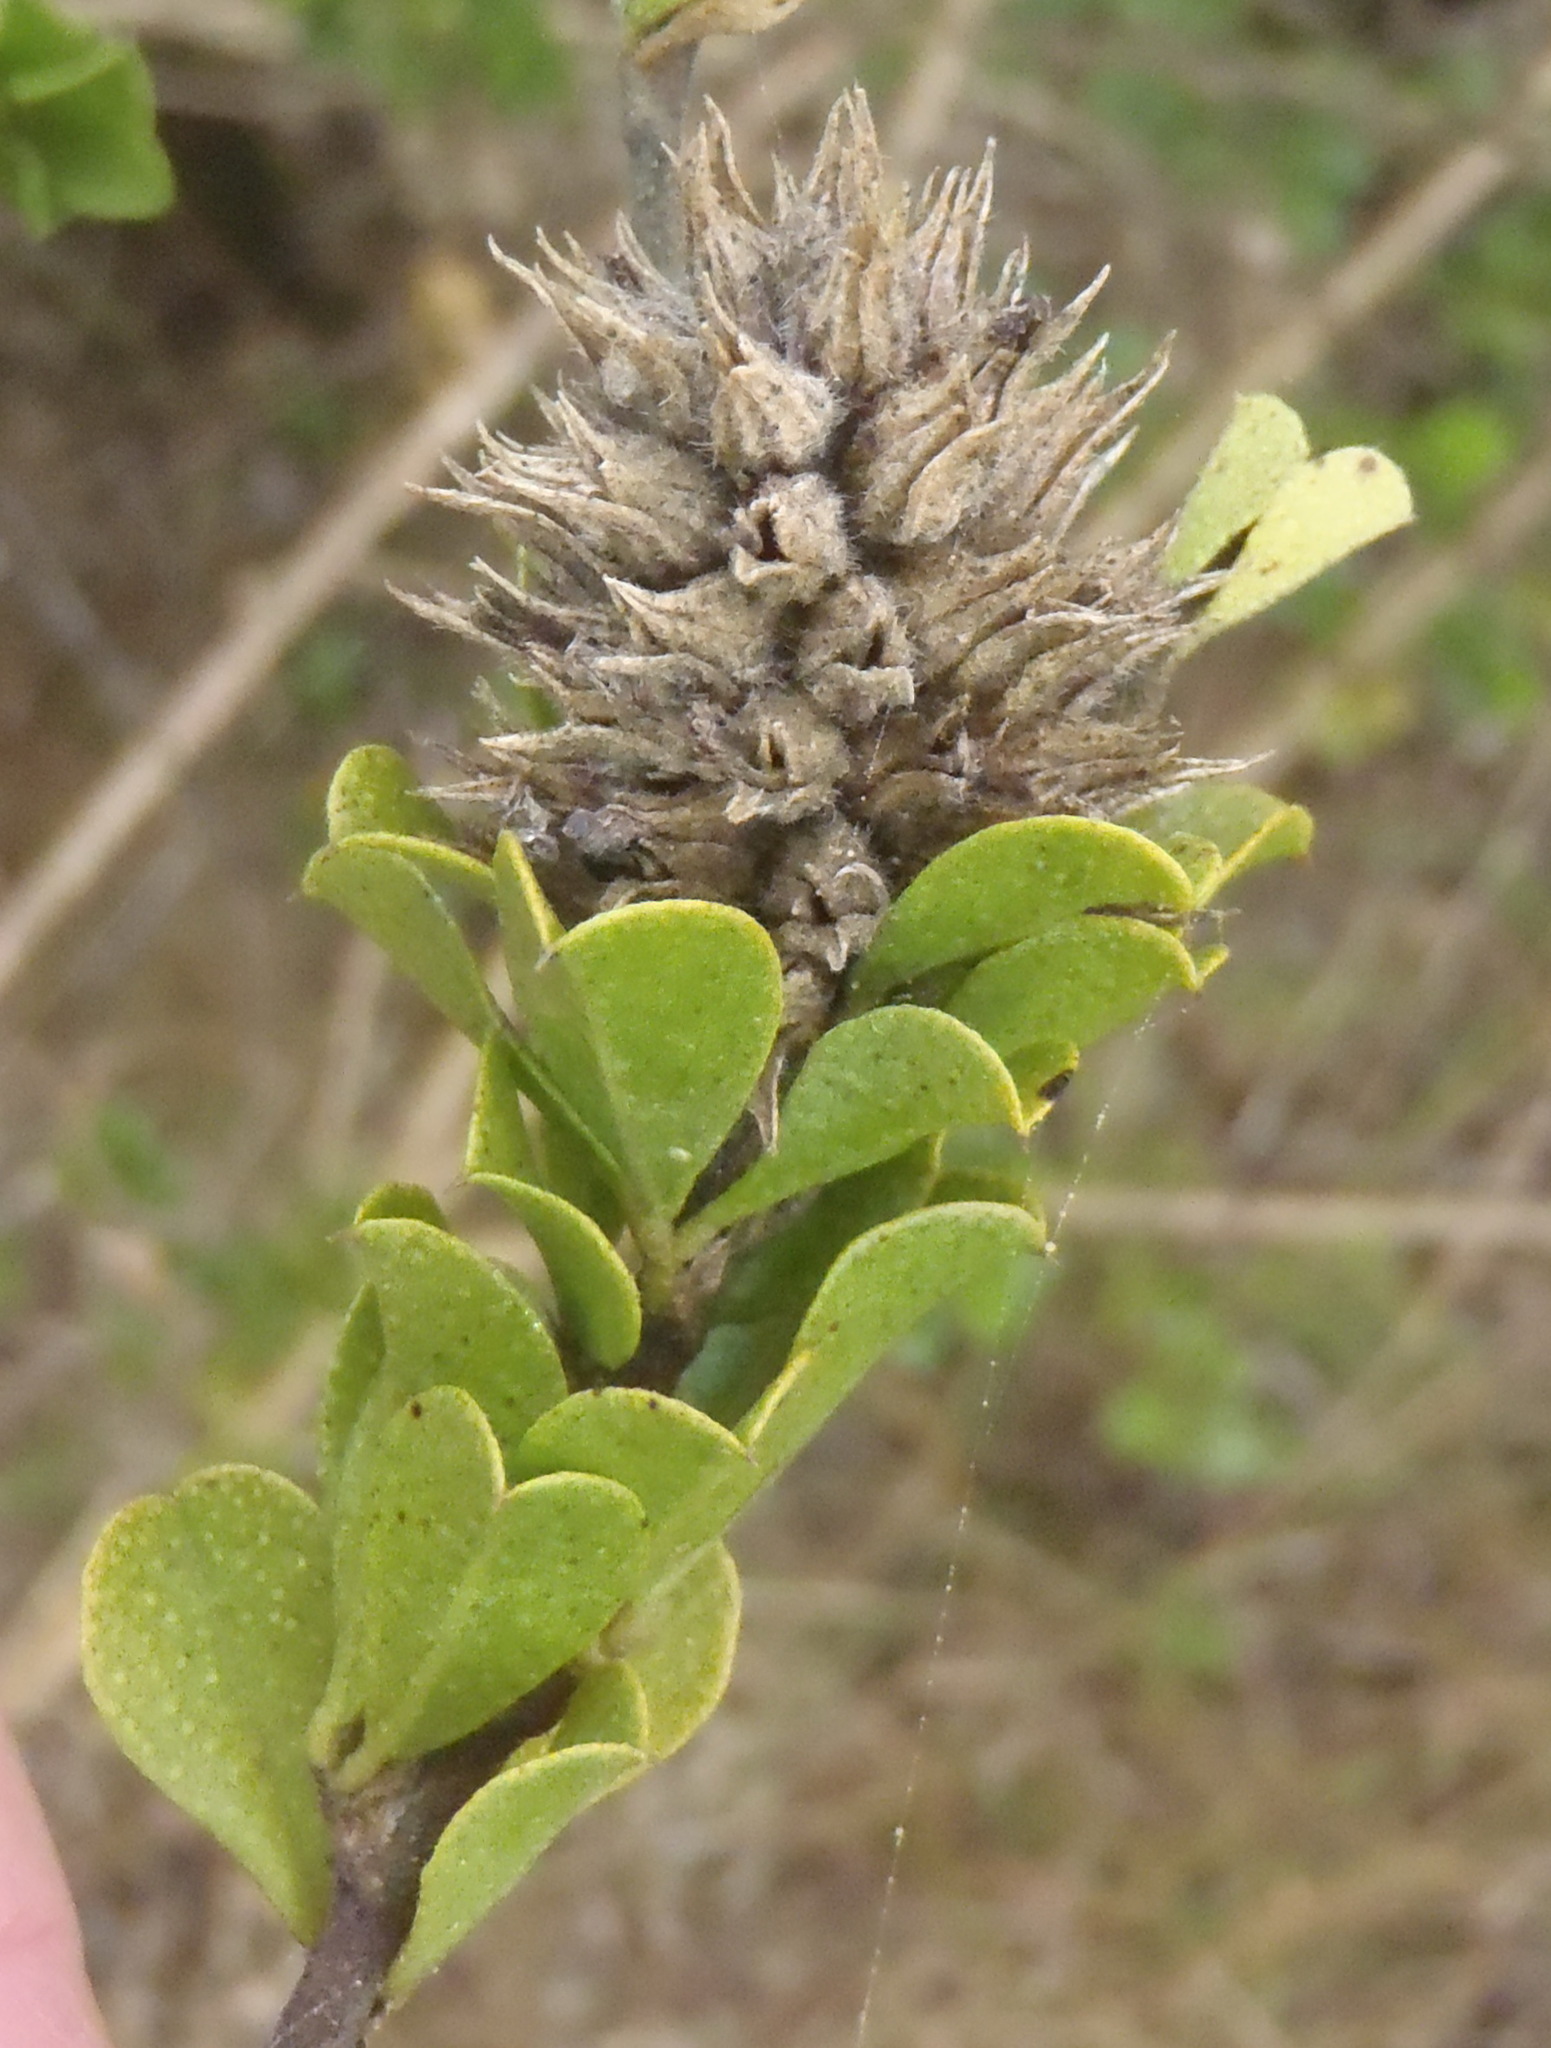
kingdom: Plantae
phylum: Tracheophyta
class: Magnoliopsida
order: Fabales
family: Fabaceae
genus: Psoralea
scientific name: Psoralea bracteolata
